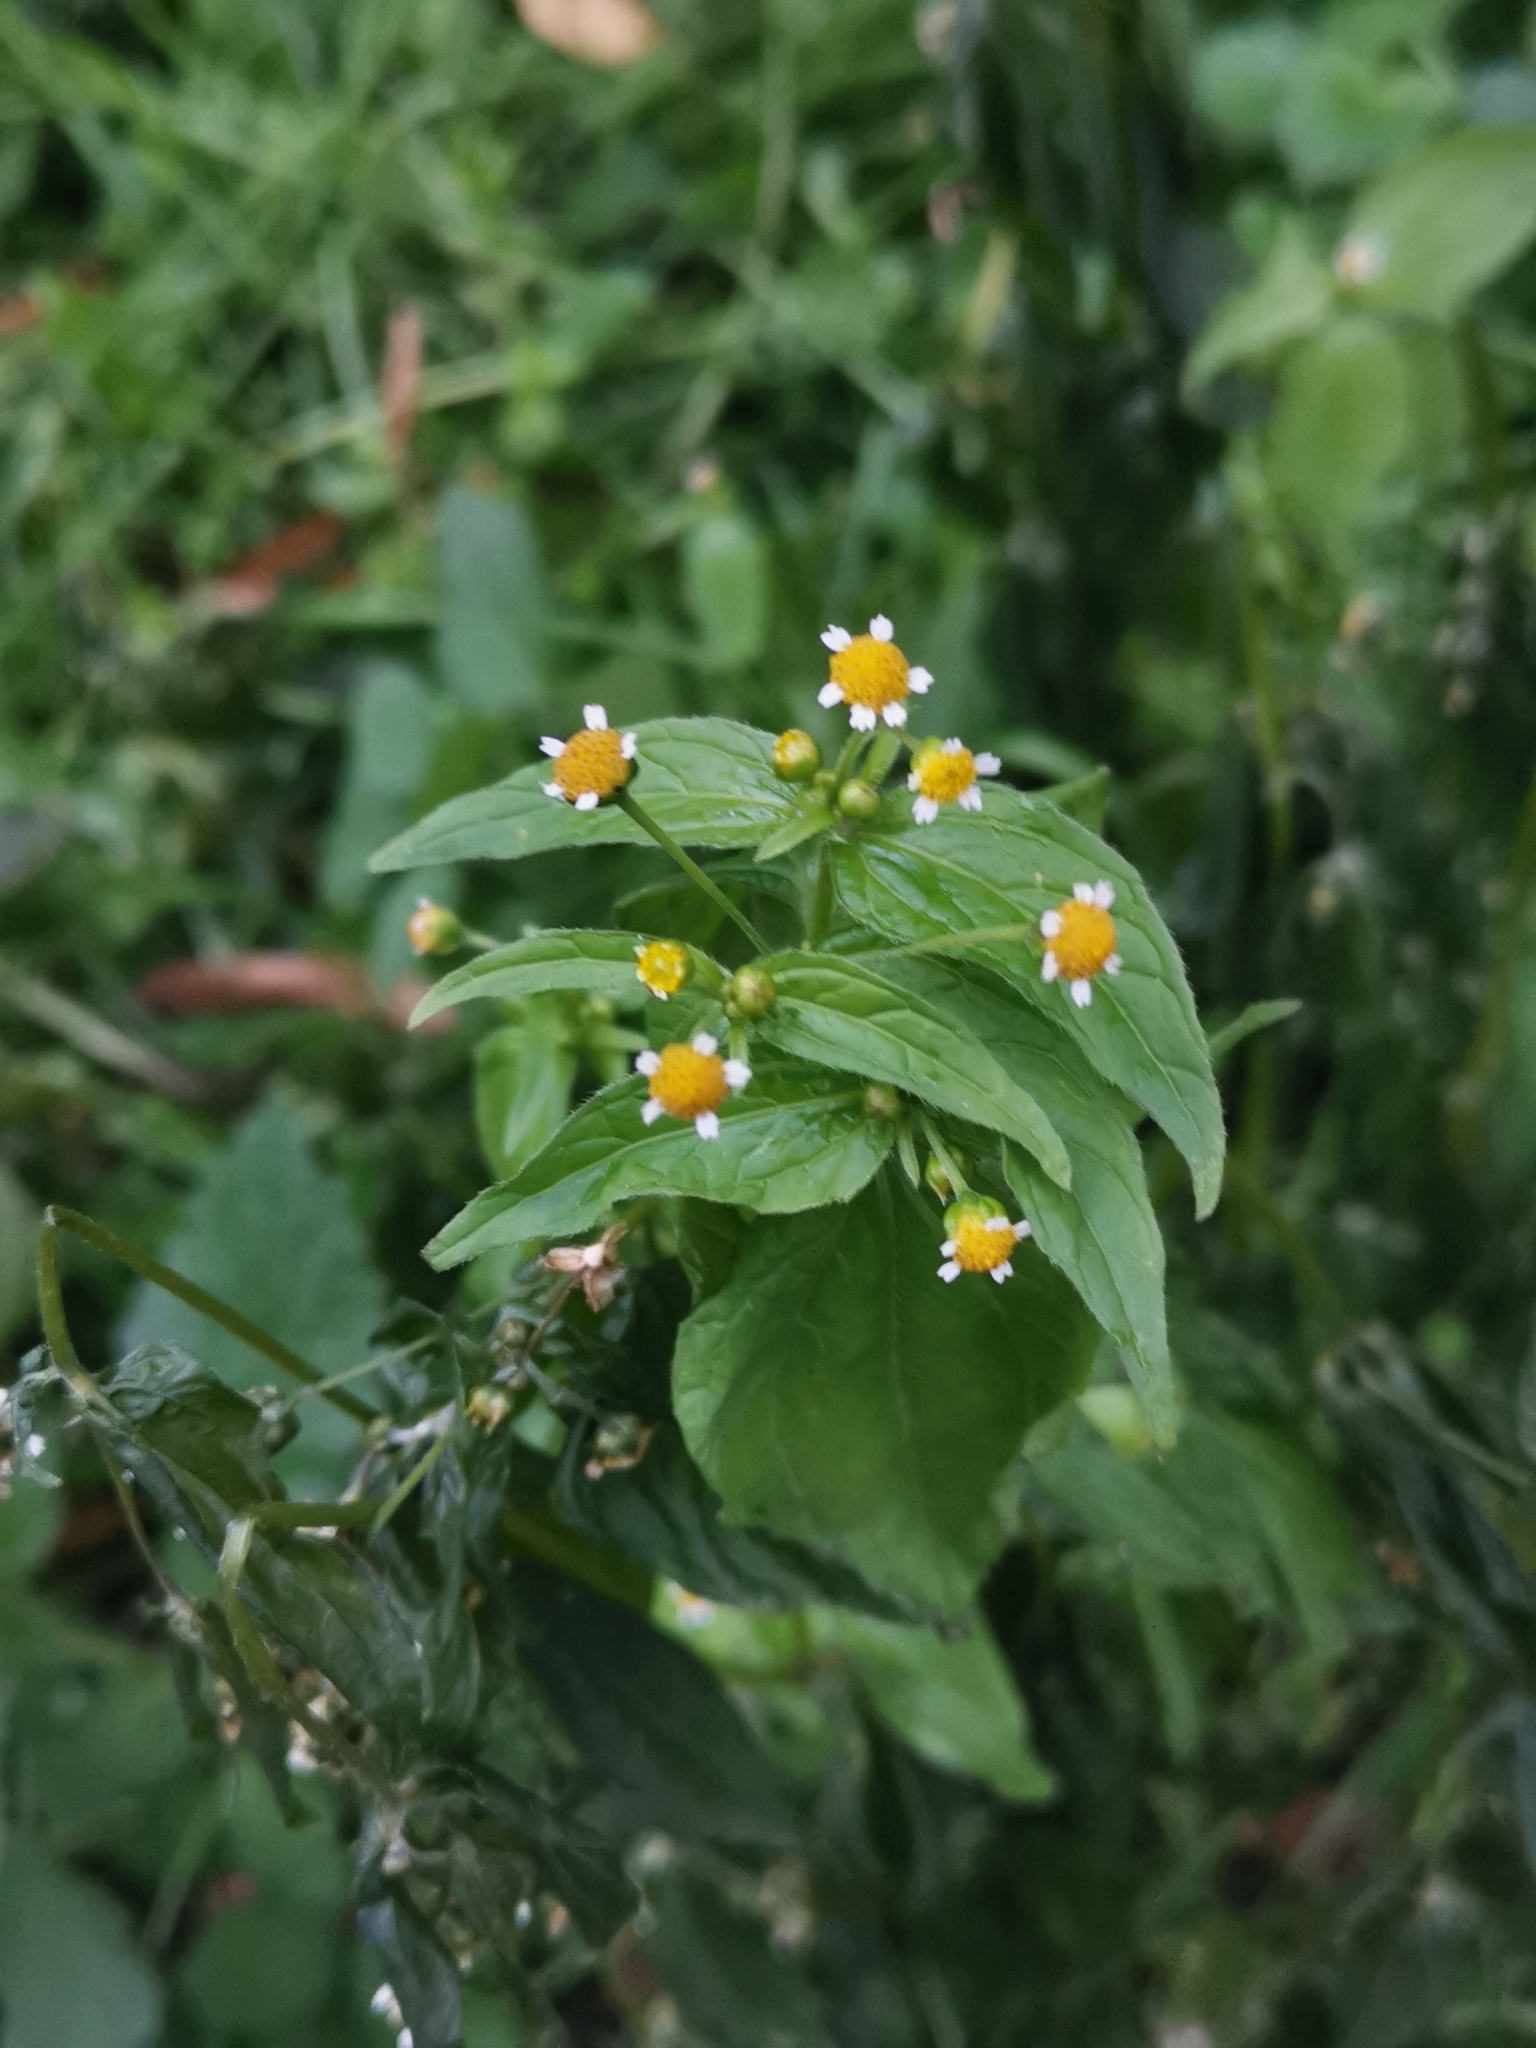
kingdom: Plantae
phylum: Tracheophyta
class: Magnoliopsida
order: Asterales
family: Asteraceae
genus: Galinsoga
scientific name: Galinsoga parviflora
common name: Gallant soldier
